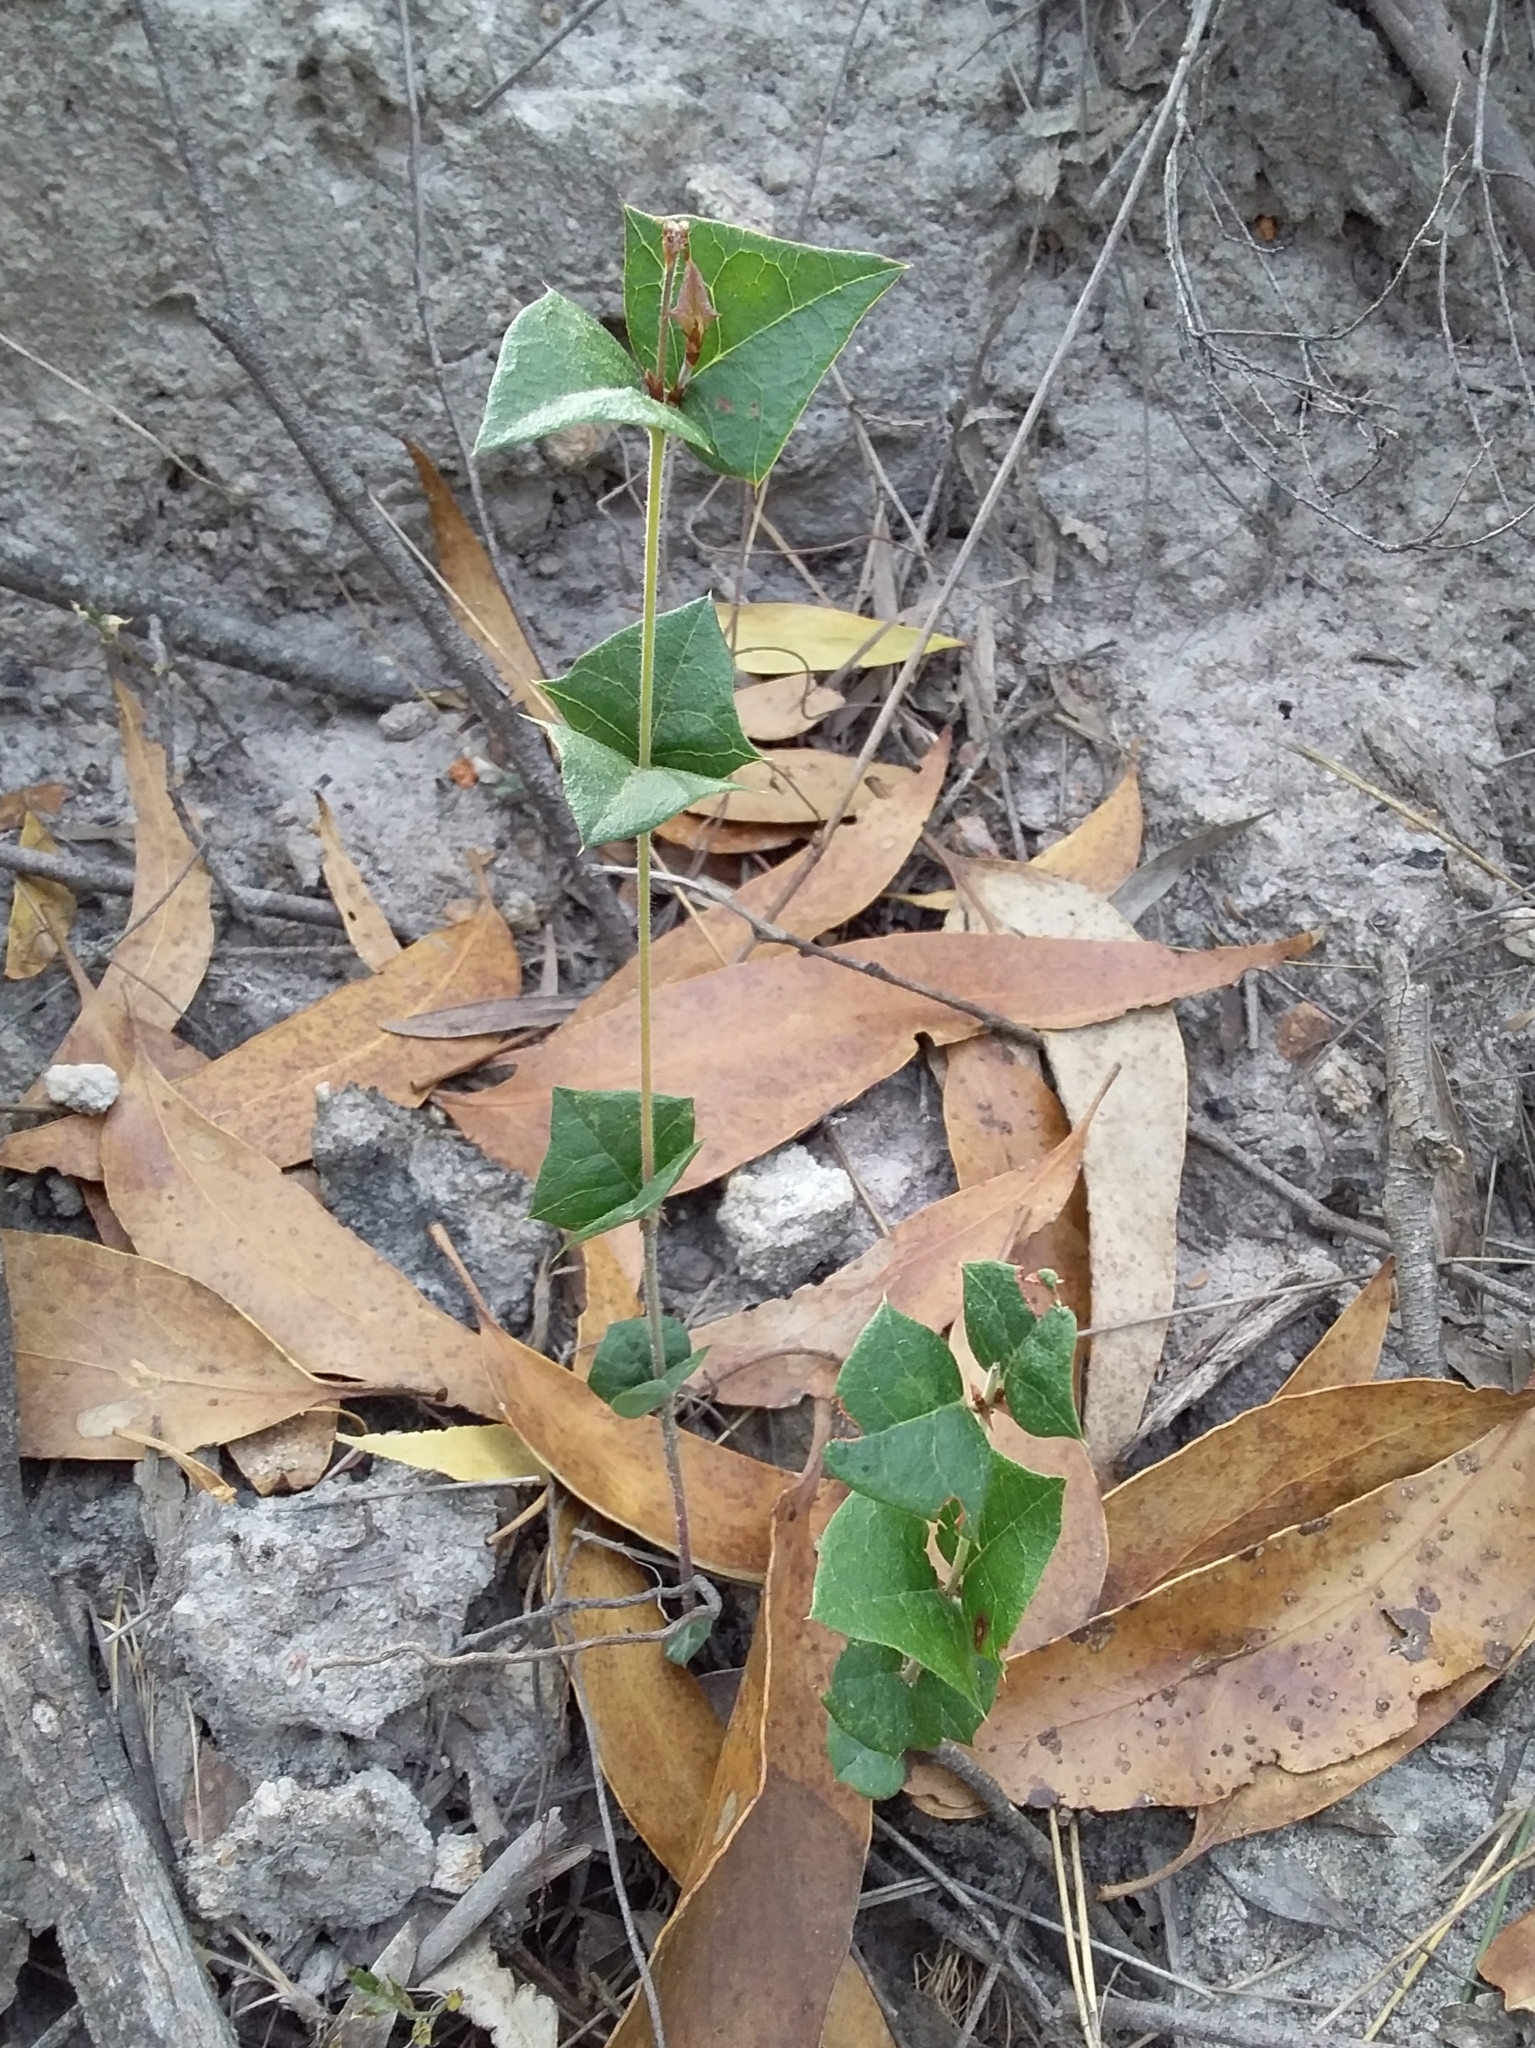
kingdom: Plantae
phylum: Tracheophyta
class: Magnoliopsida
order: Fabales
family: Fabaceae
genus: Platylobium
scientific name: Platylobium obtusangulum
